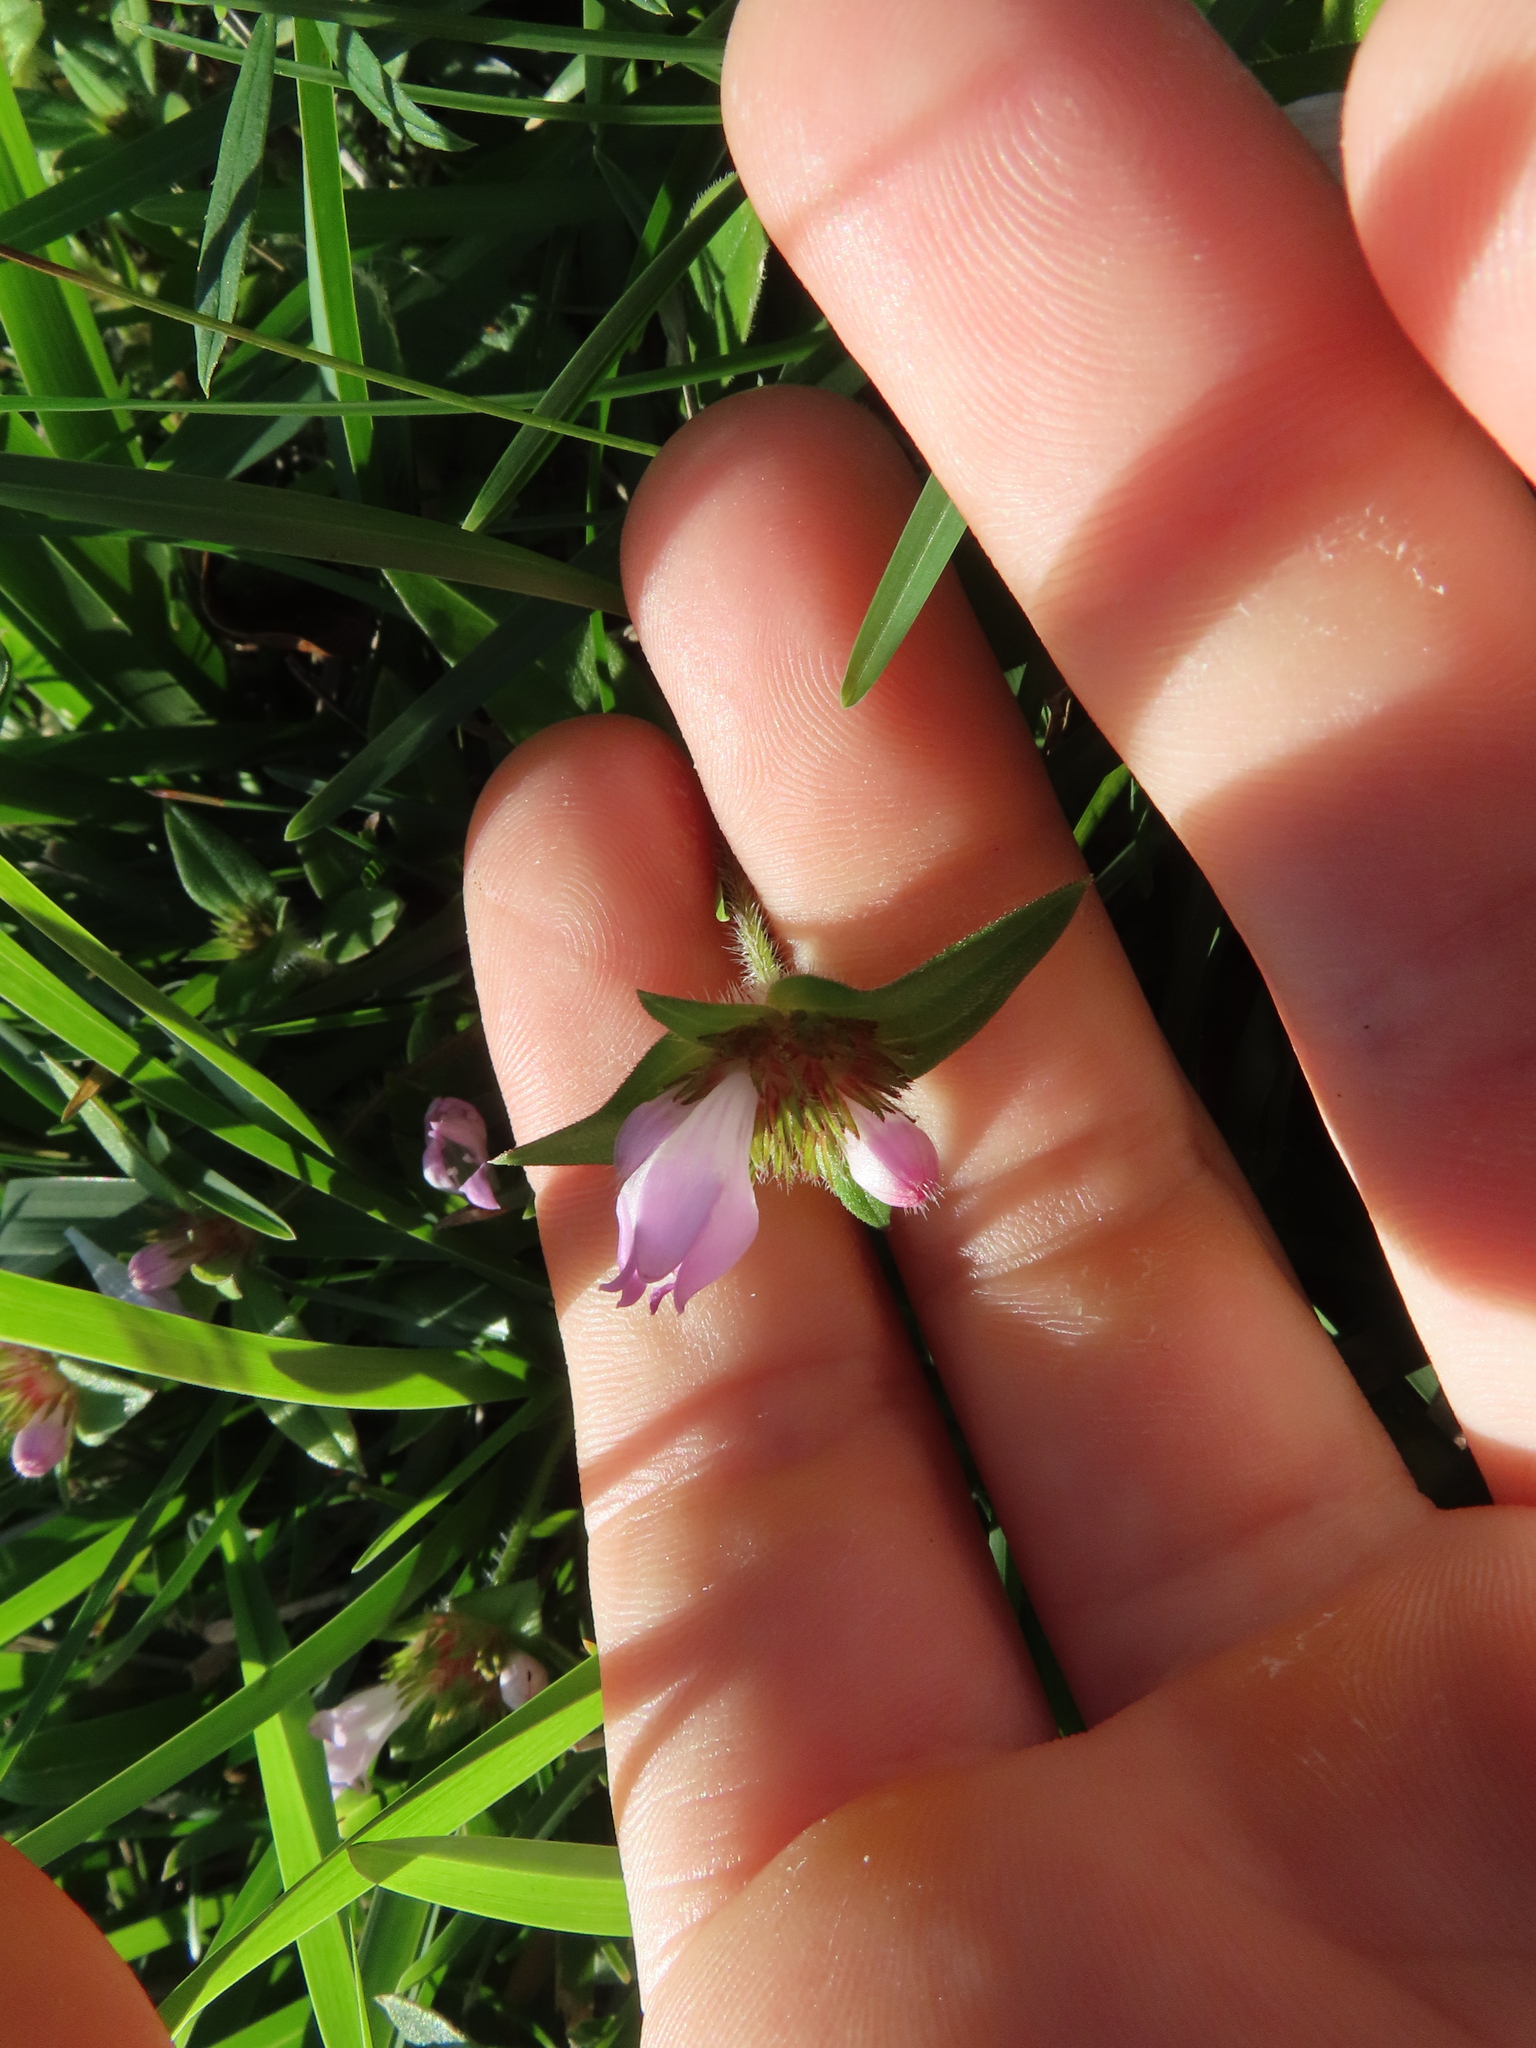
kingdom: Plantae
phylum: Tracheophyta
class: Magnoliopsida
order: Gentianales
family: Rubiaceae
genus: Richardia
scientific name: Richardia grandiflora
